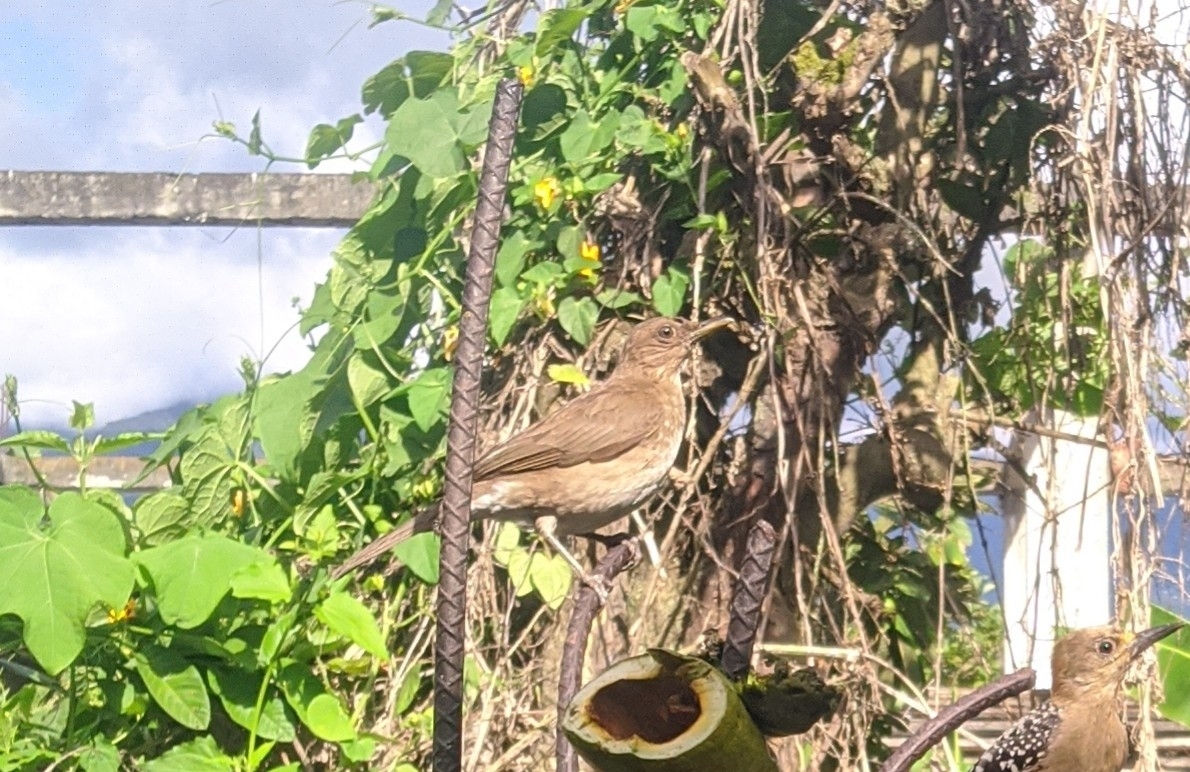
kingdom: Animalia
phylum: Chordata
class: Aves
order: Passeriformes
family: Turdidae
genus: Turdus
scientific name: Turdus ignobilis
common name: Black-billed thrush
